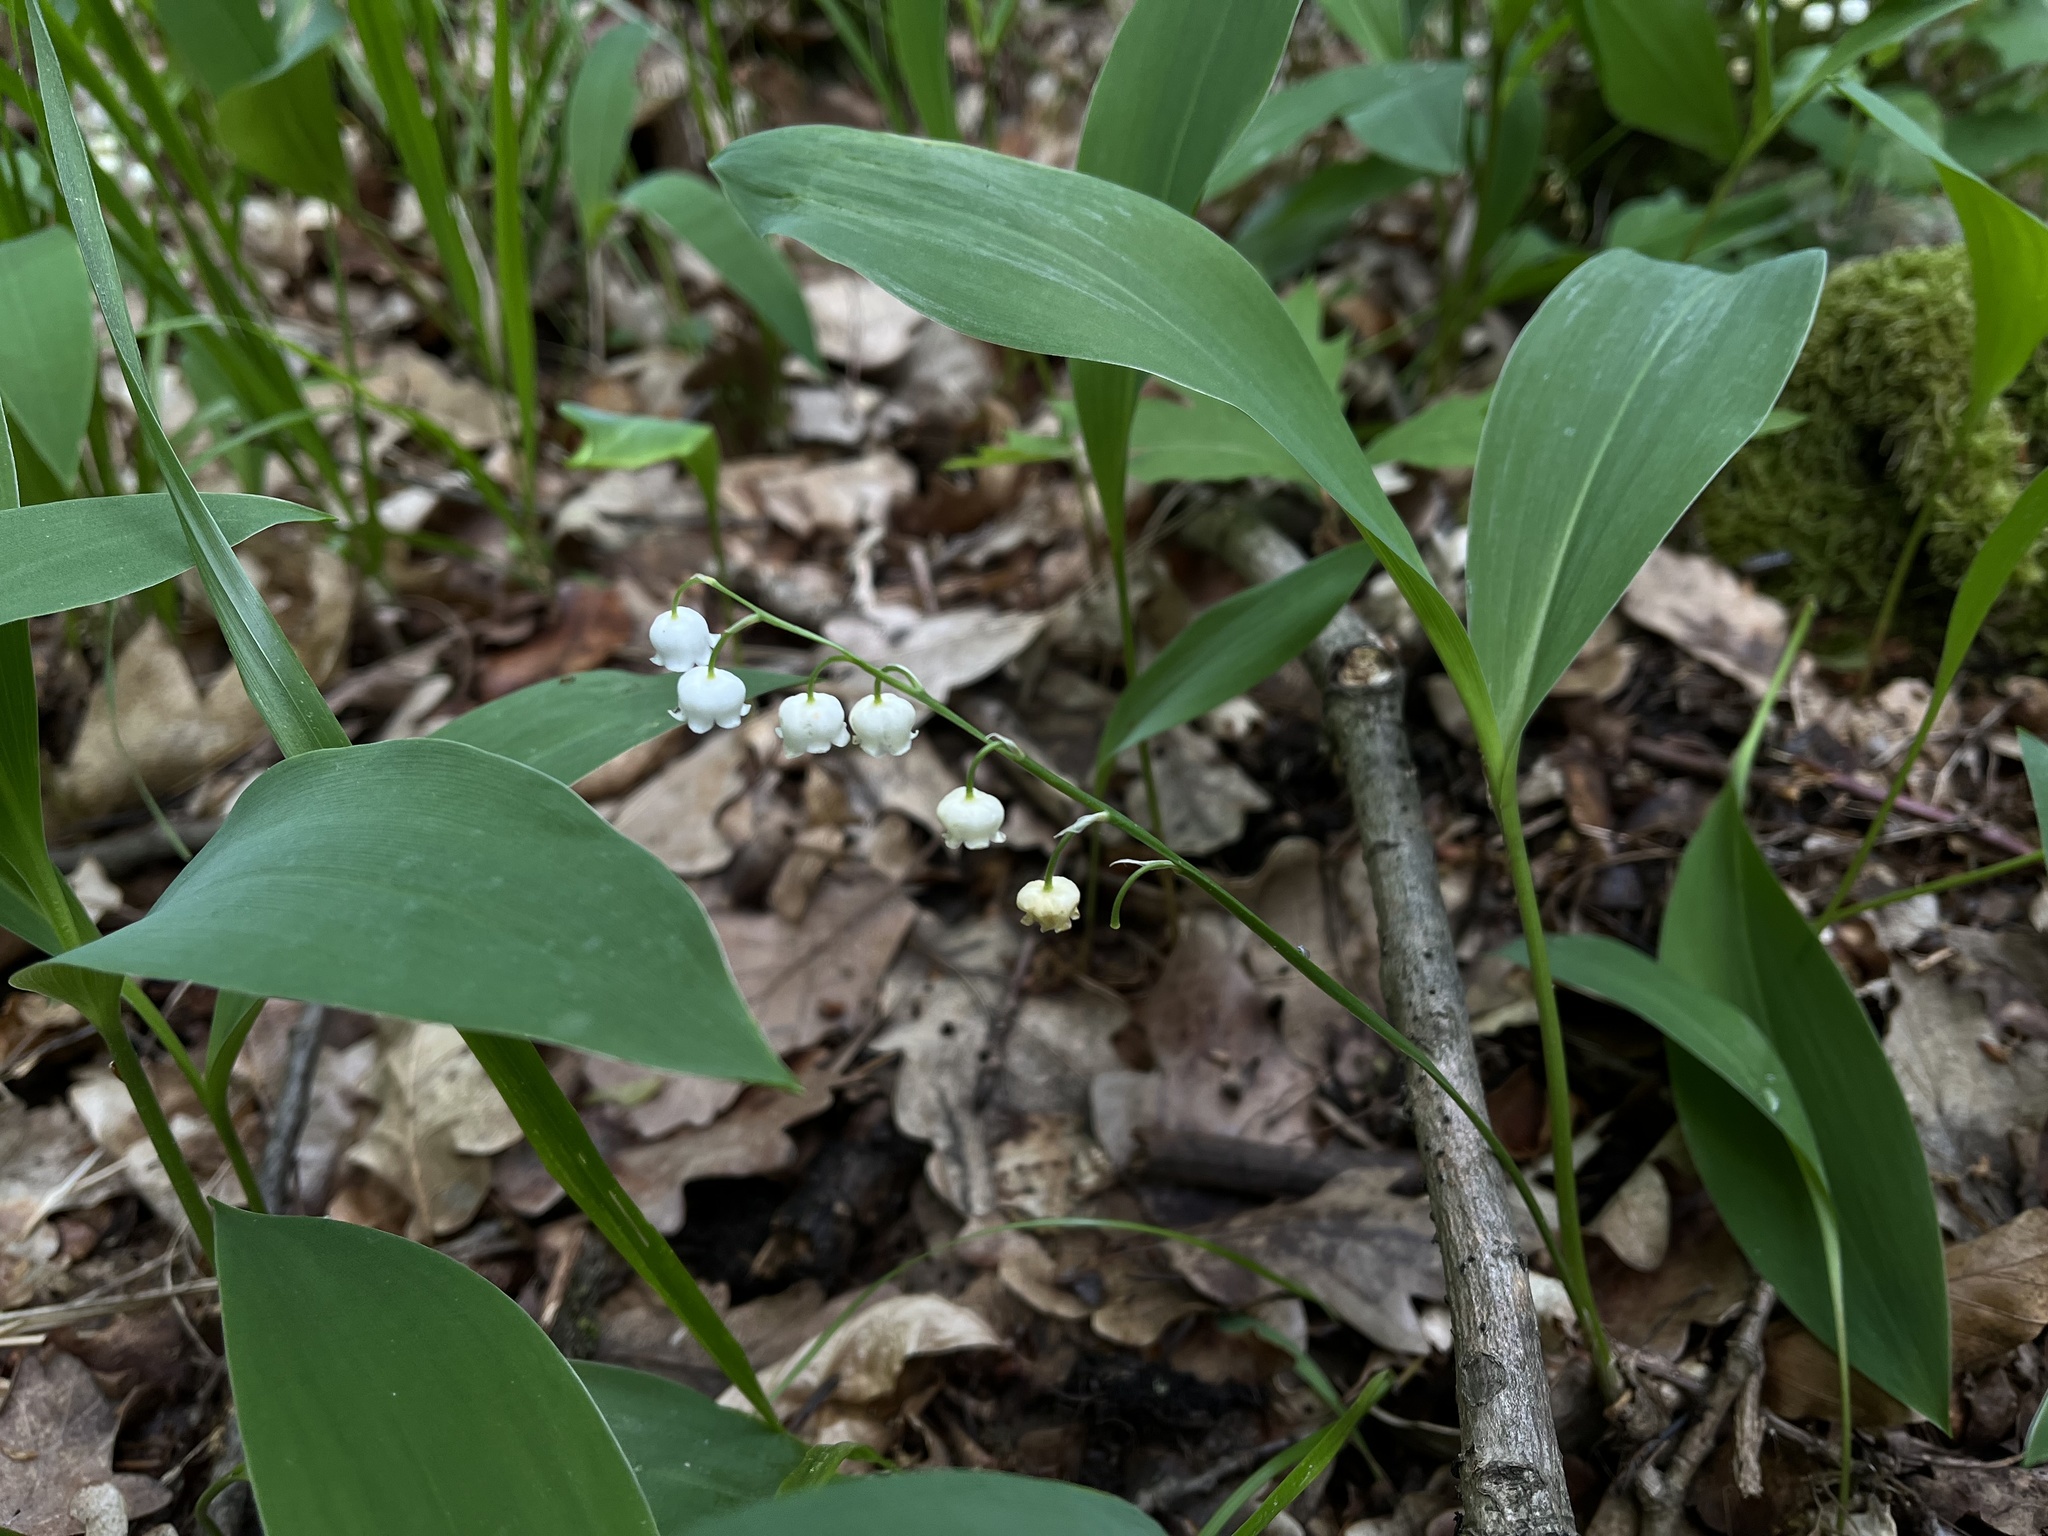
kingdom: Plantae
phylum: Tracheophyta
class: Liliopsida
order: Asparagales
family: Asparagaceae
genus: Convallaria
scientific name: Convallaria majalis
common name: Lily-of-the-valley
